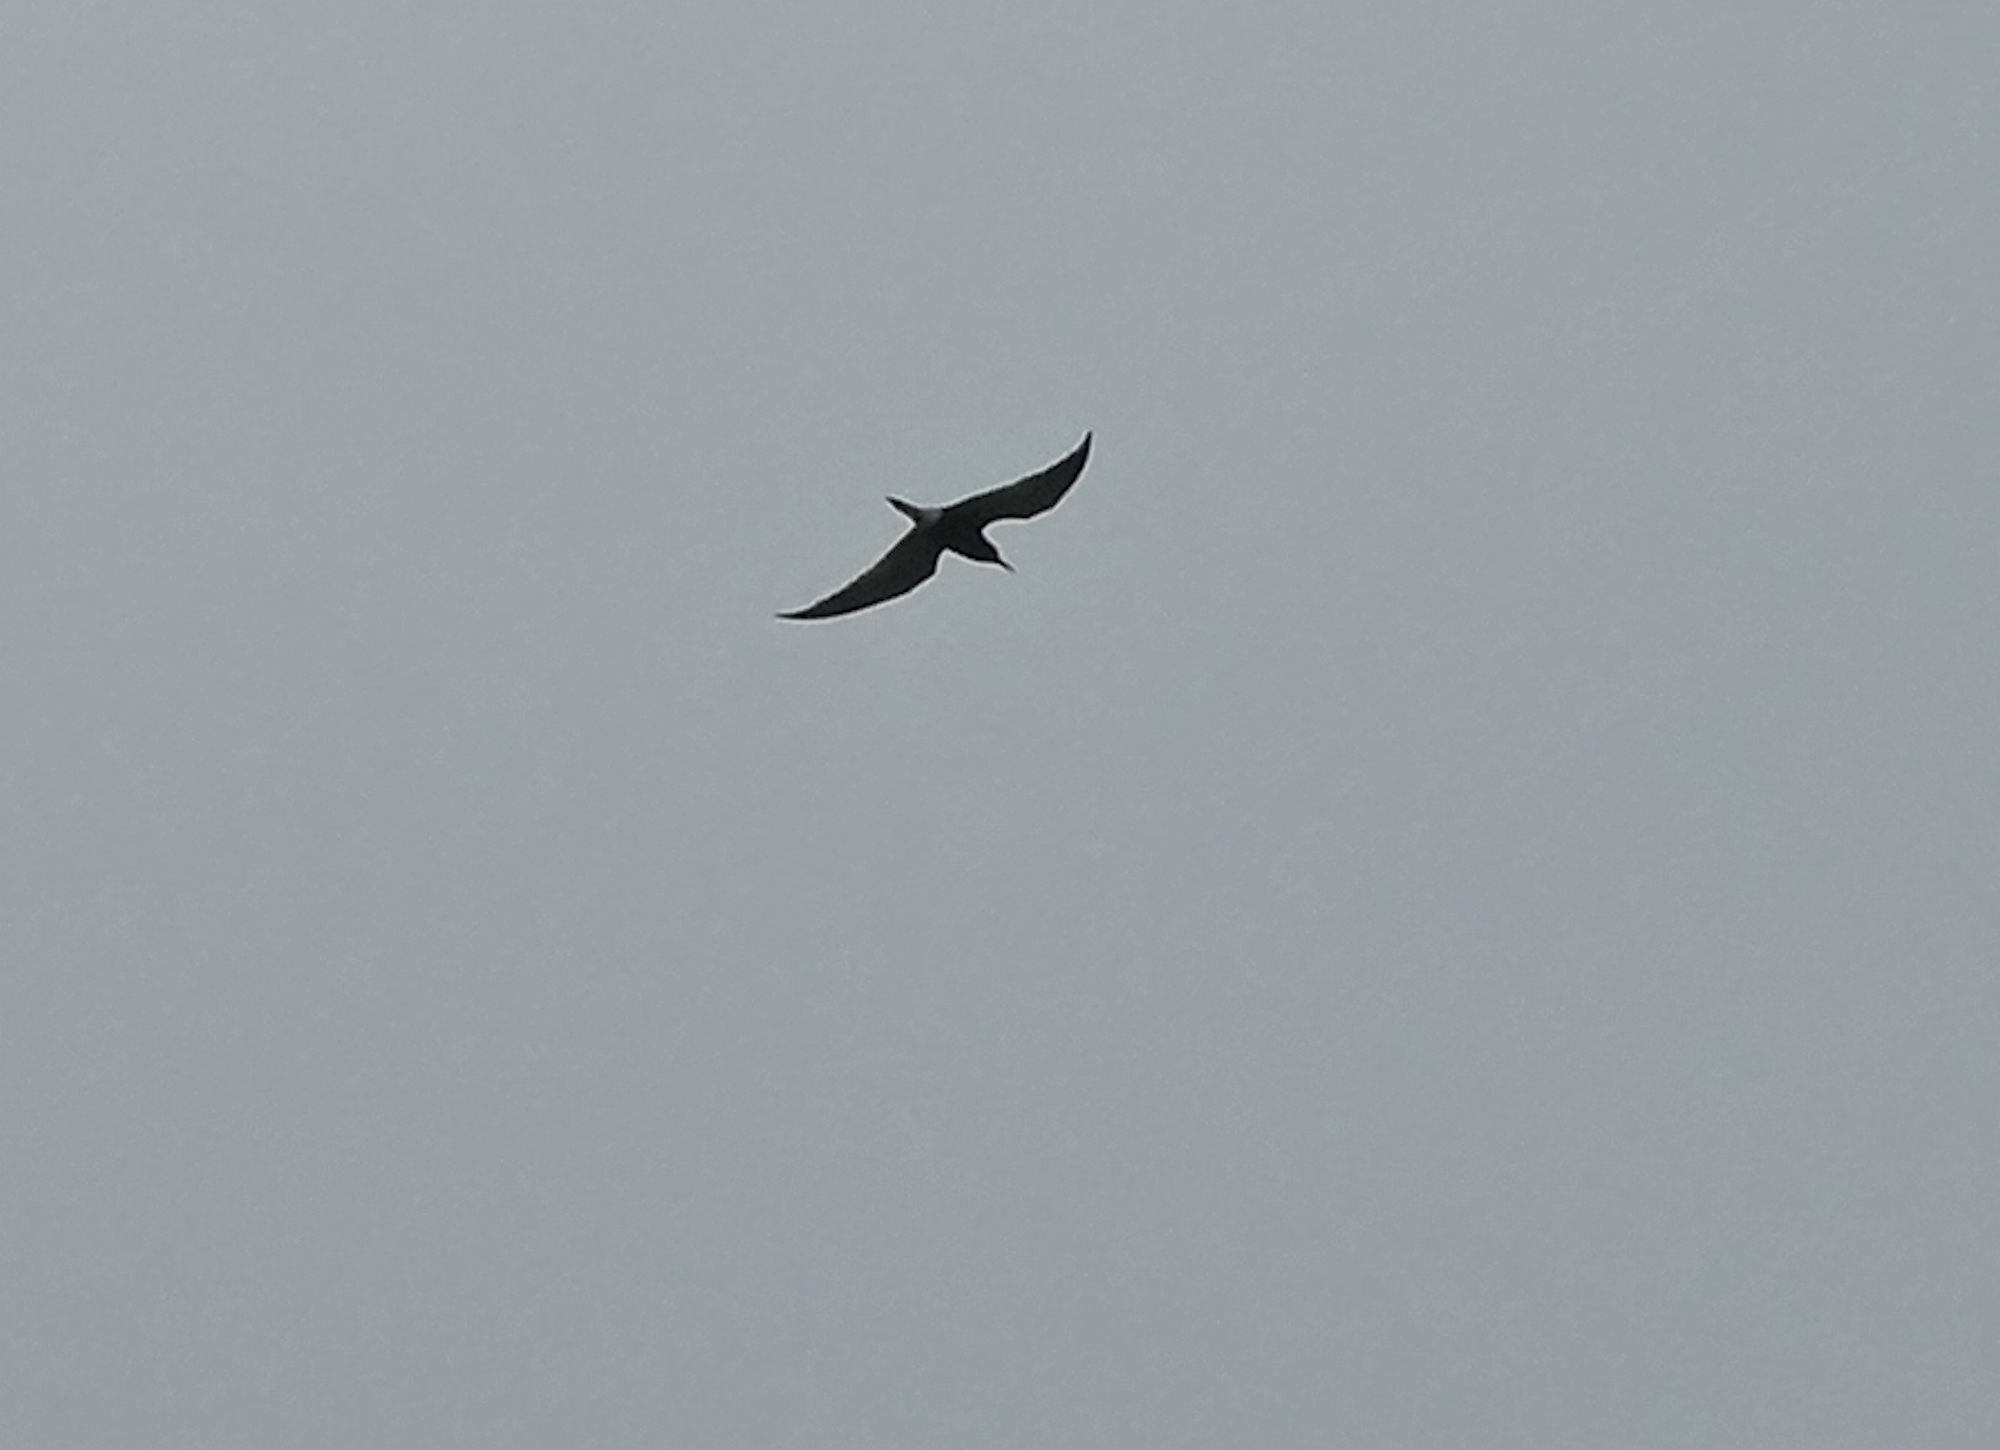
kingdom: Animalia
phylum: Chordata
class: Aves
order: Charadriiformes
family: Laridae
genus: Chlidonias
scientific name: Chlidonias niger
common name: Black tern
